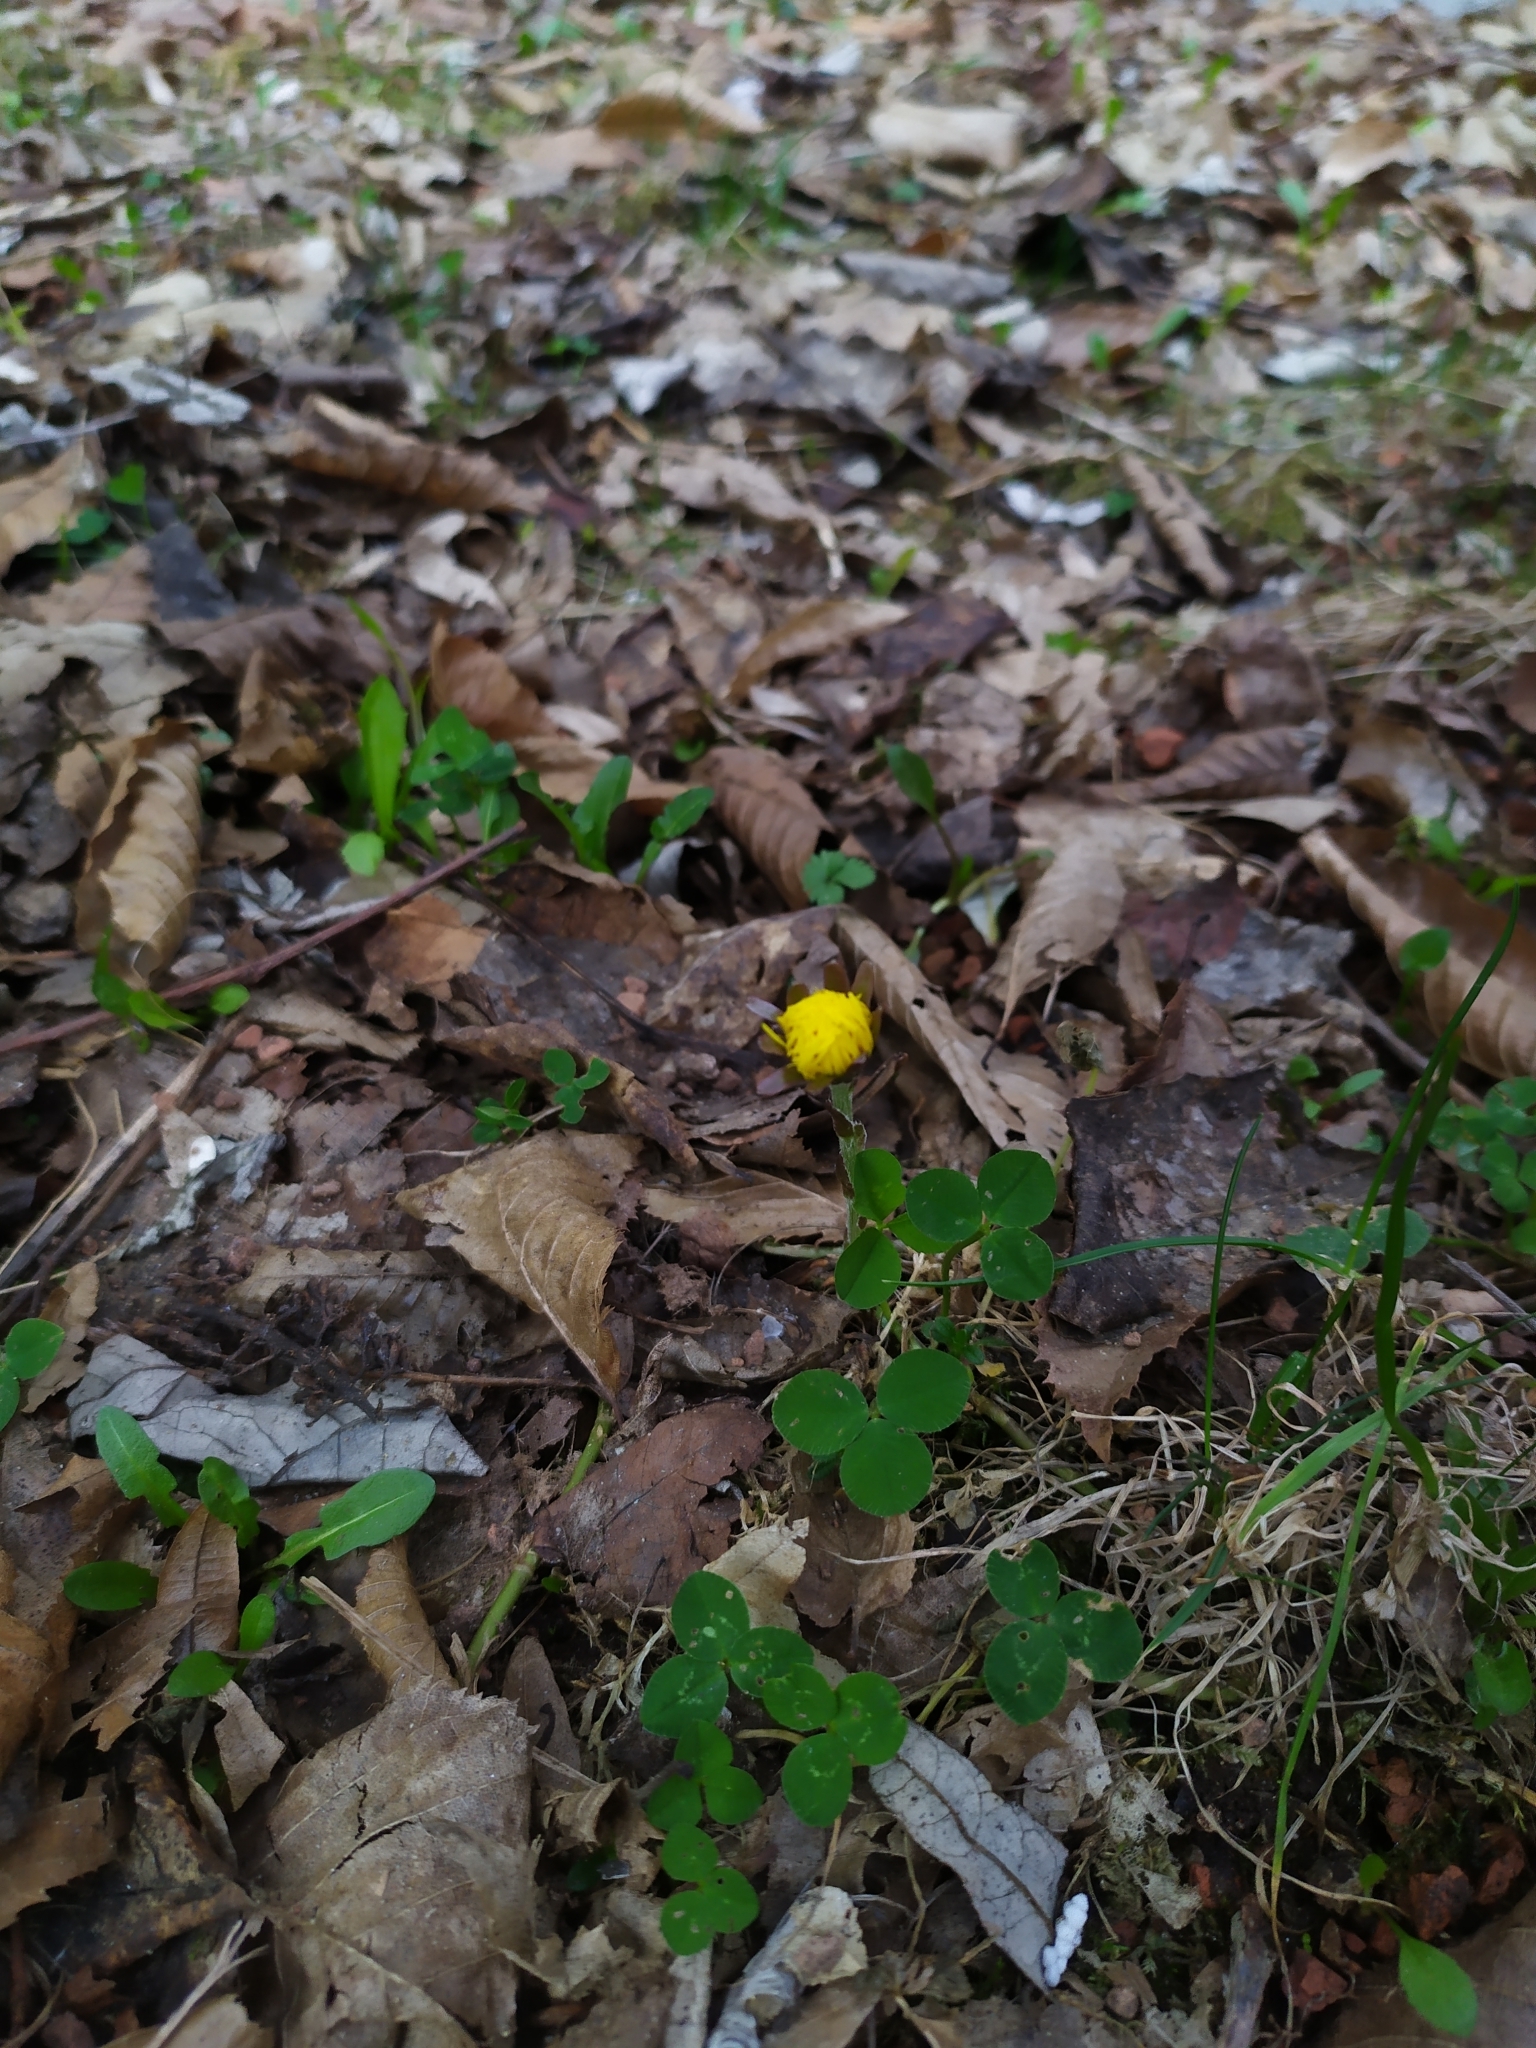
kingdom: Plantae
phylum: Tracheophyta
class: Magnoliopsida
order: Asterales
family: Asteraceae
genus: Tussilago
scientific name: Tussilago farfara
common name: Coltsfoot
